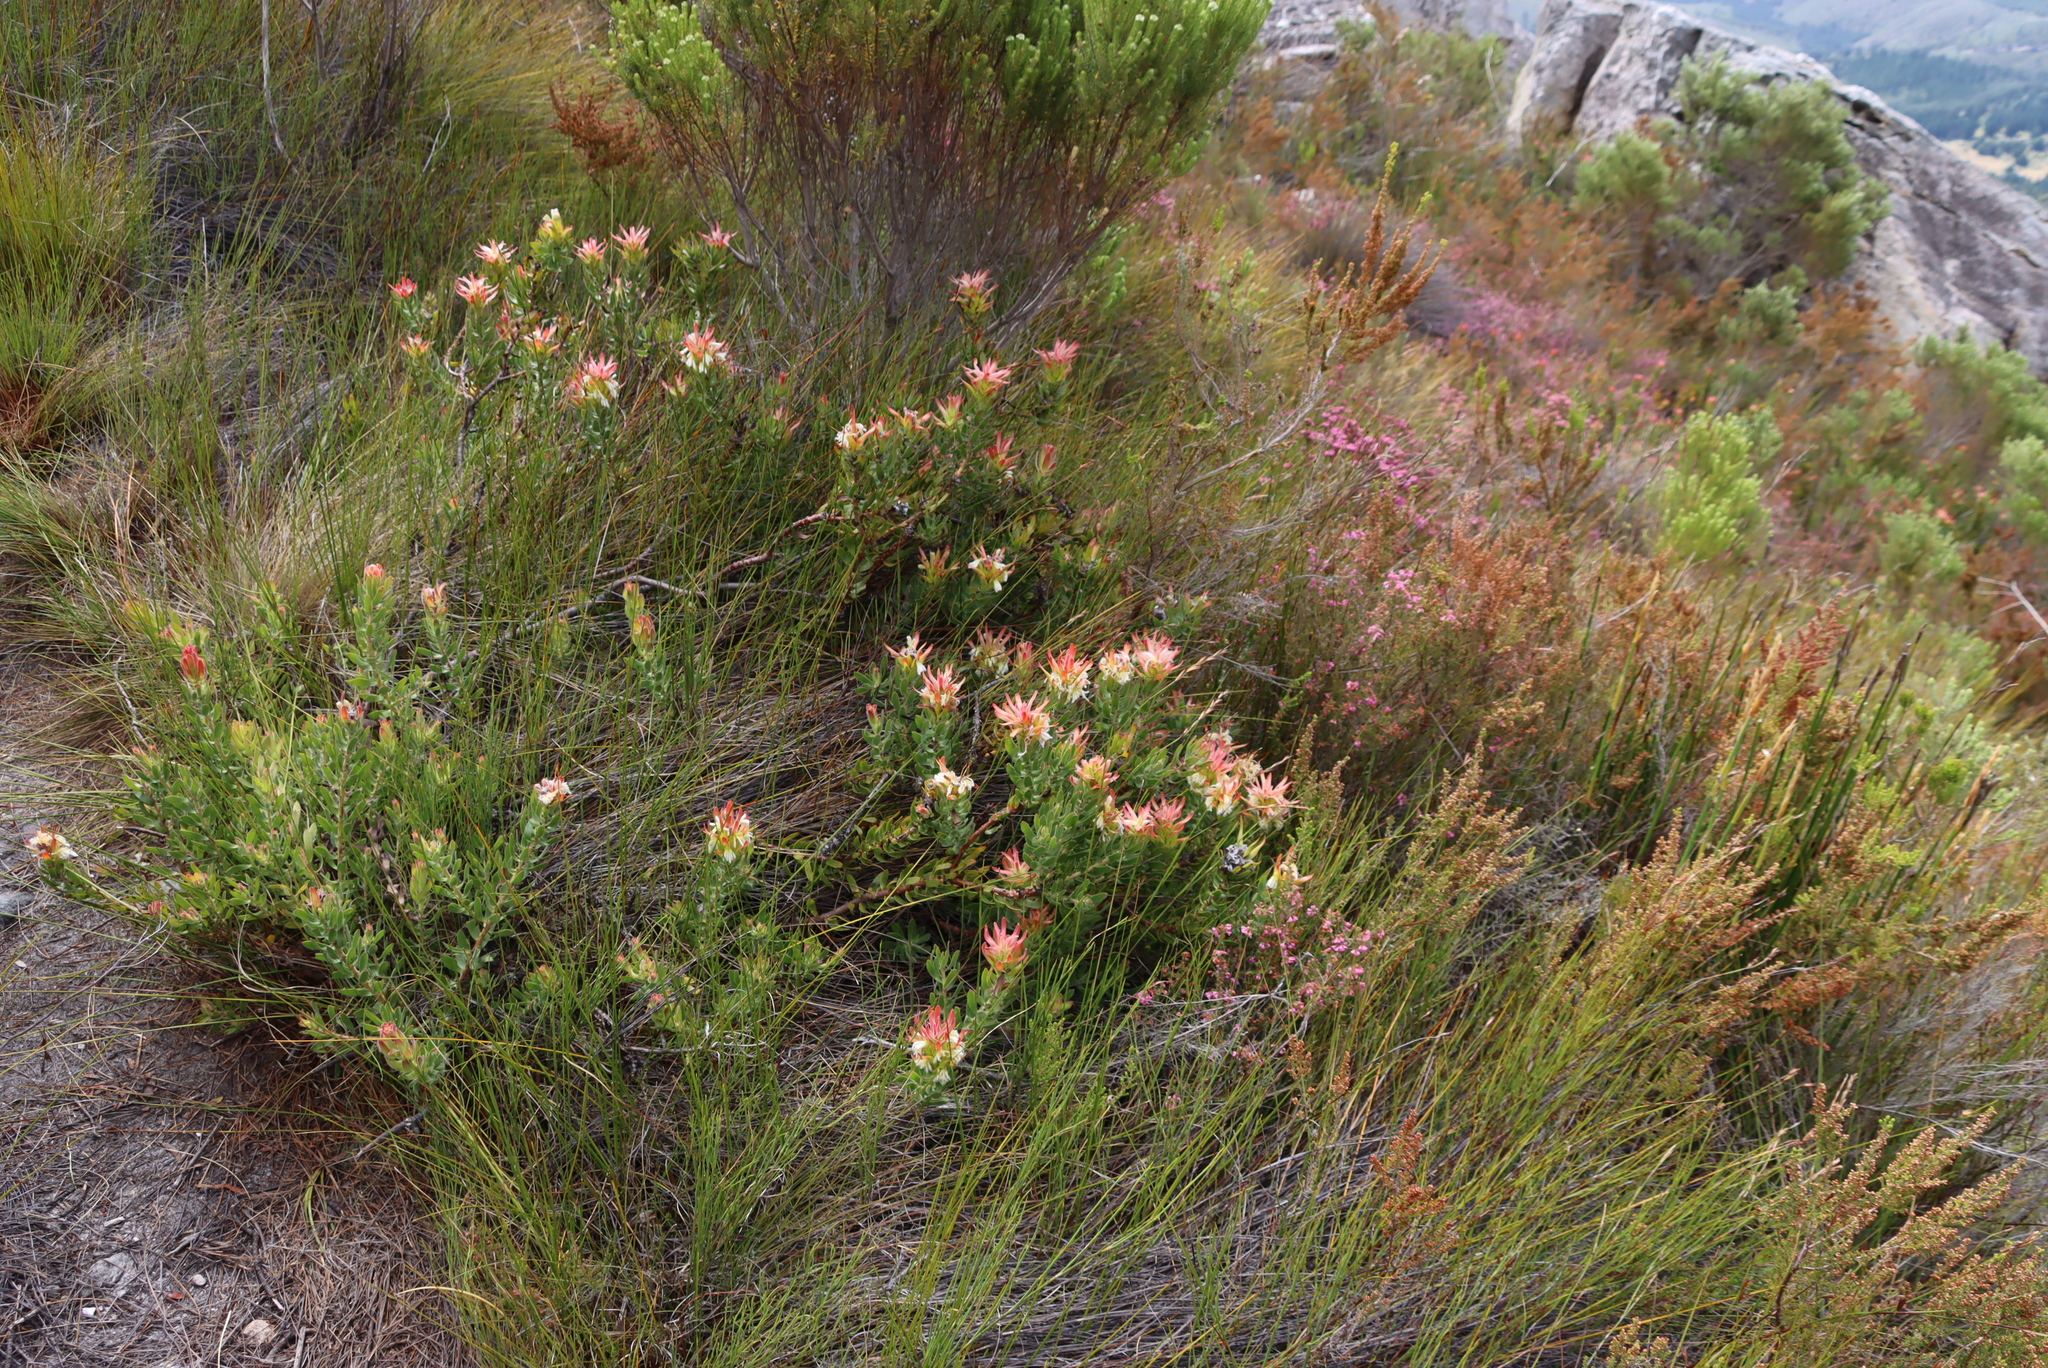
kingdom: Plantae
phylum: Tracheophyta
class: Magnoliopsida
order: Proteales
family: Proteaceae
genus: Mimetes
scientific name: Mimetes cucullatus
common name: Common pagoda
